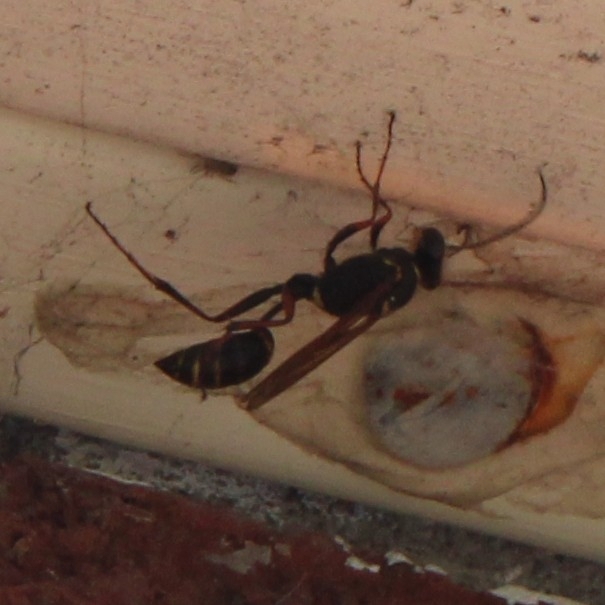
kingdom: Animalia
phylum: Arthropoda
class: Insecta
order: Hymenoptera
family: Sphecidae
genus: Sceliphron
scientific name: Sceliphron curvatum
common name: Pèlopèe
